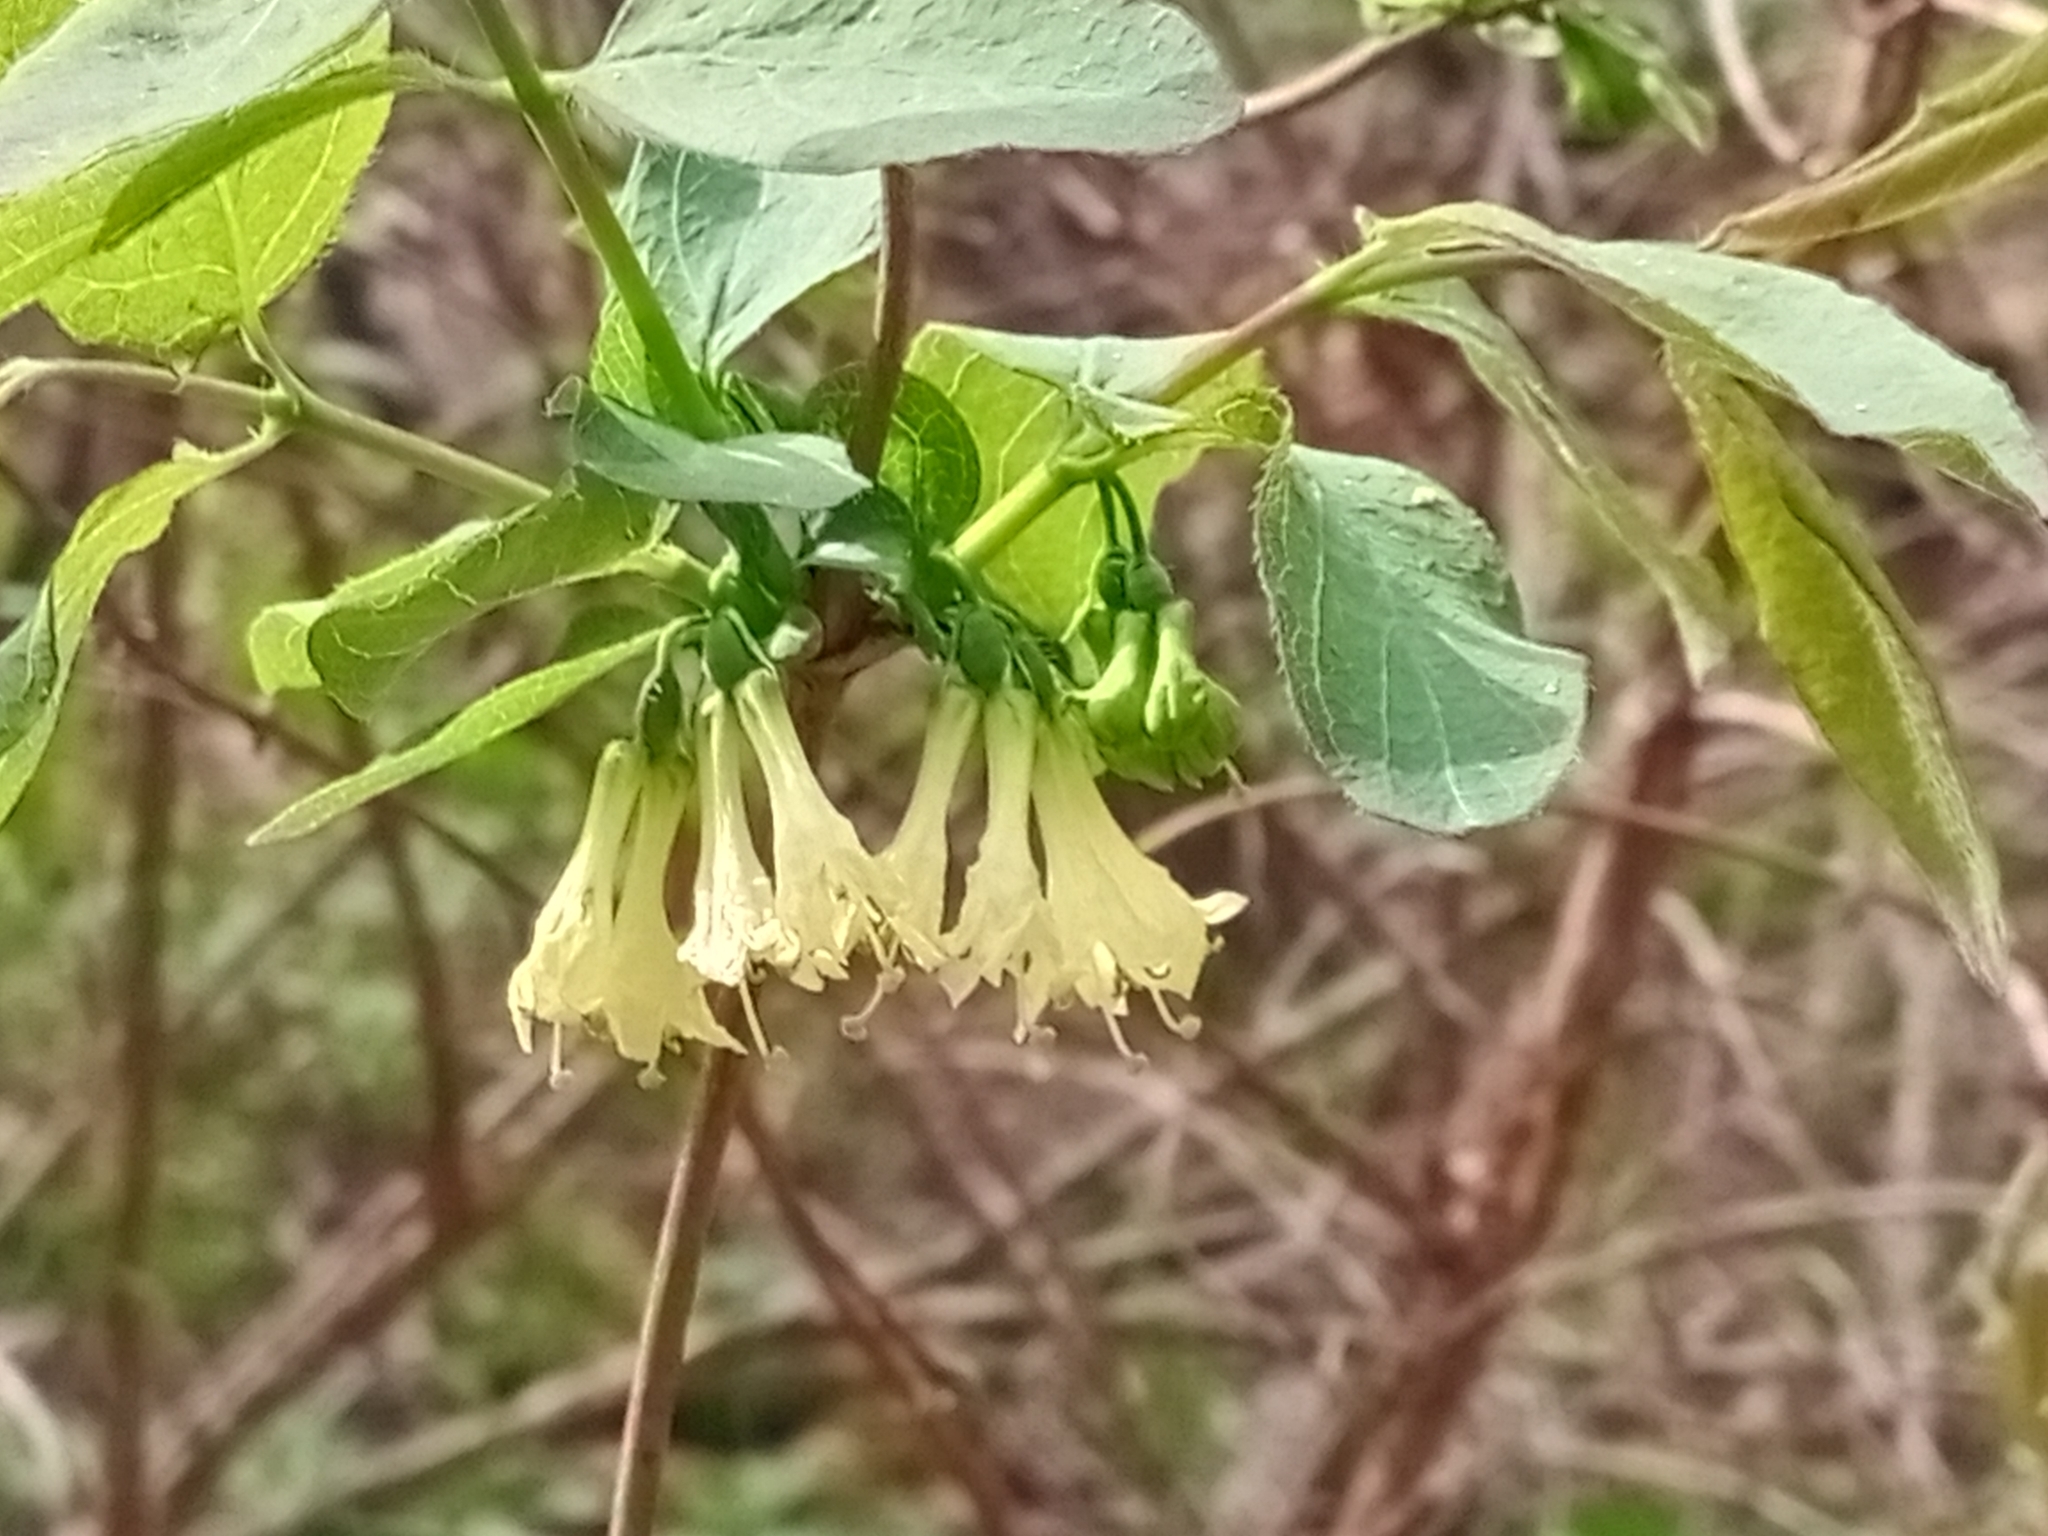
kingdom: Plantae
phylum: Tracheophyta
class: Magnoliopsida
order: Dipsacales
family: Caprifoliaceae
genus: Lonicera
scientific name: Lonicera caerulea
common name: Blue honeysuckle
